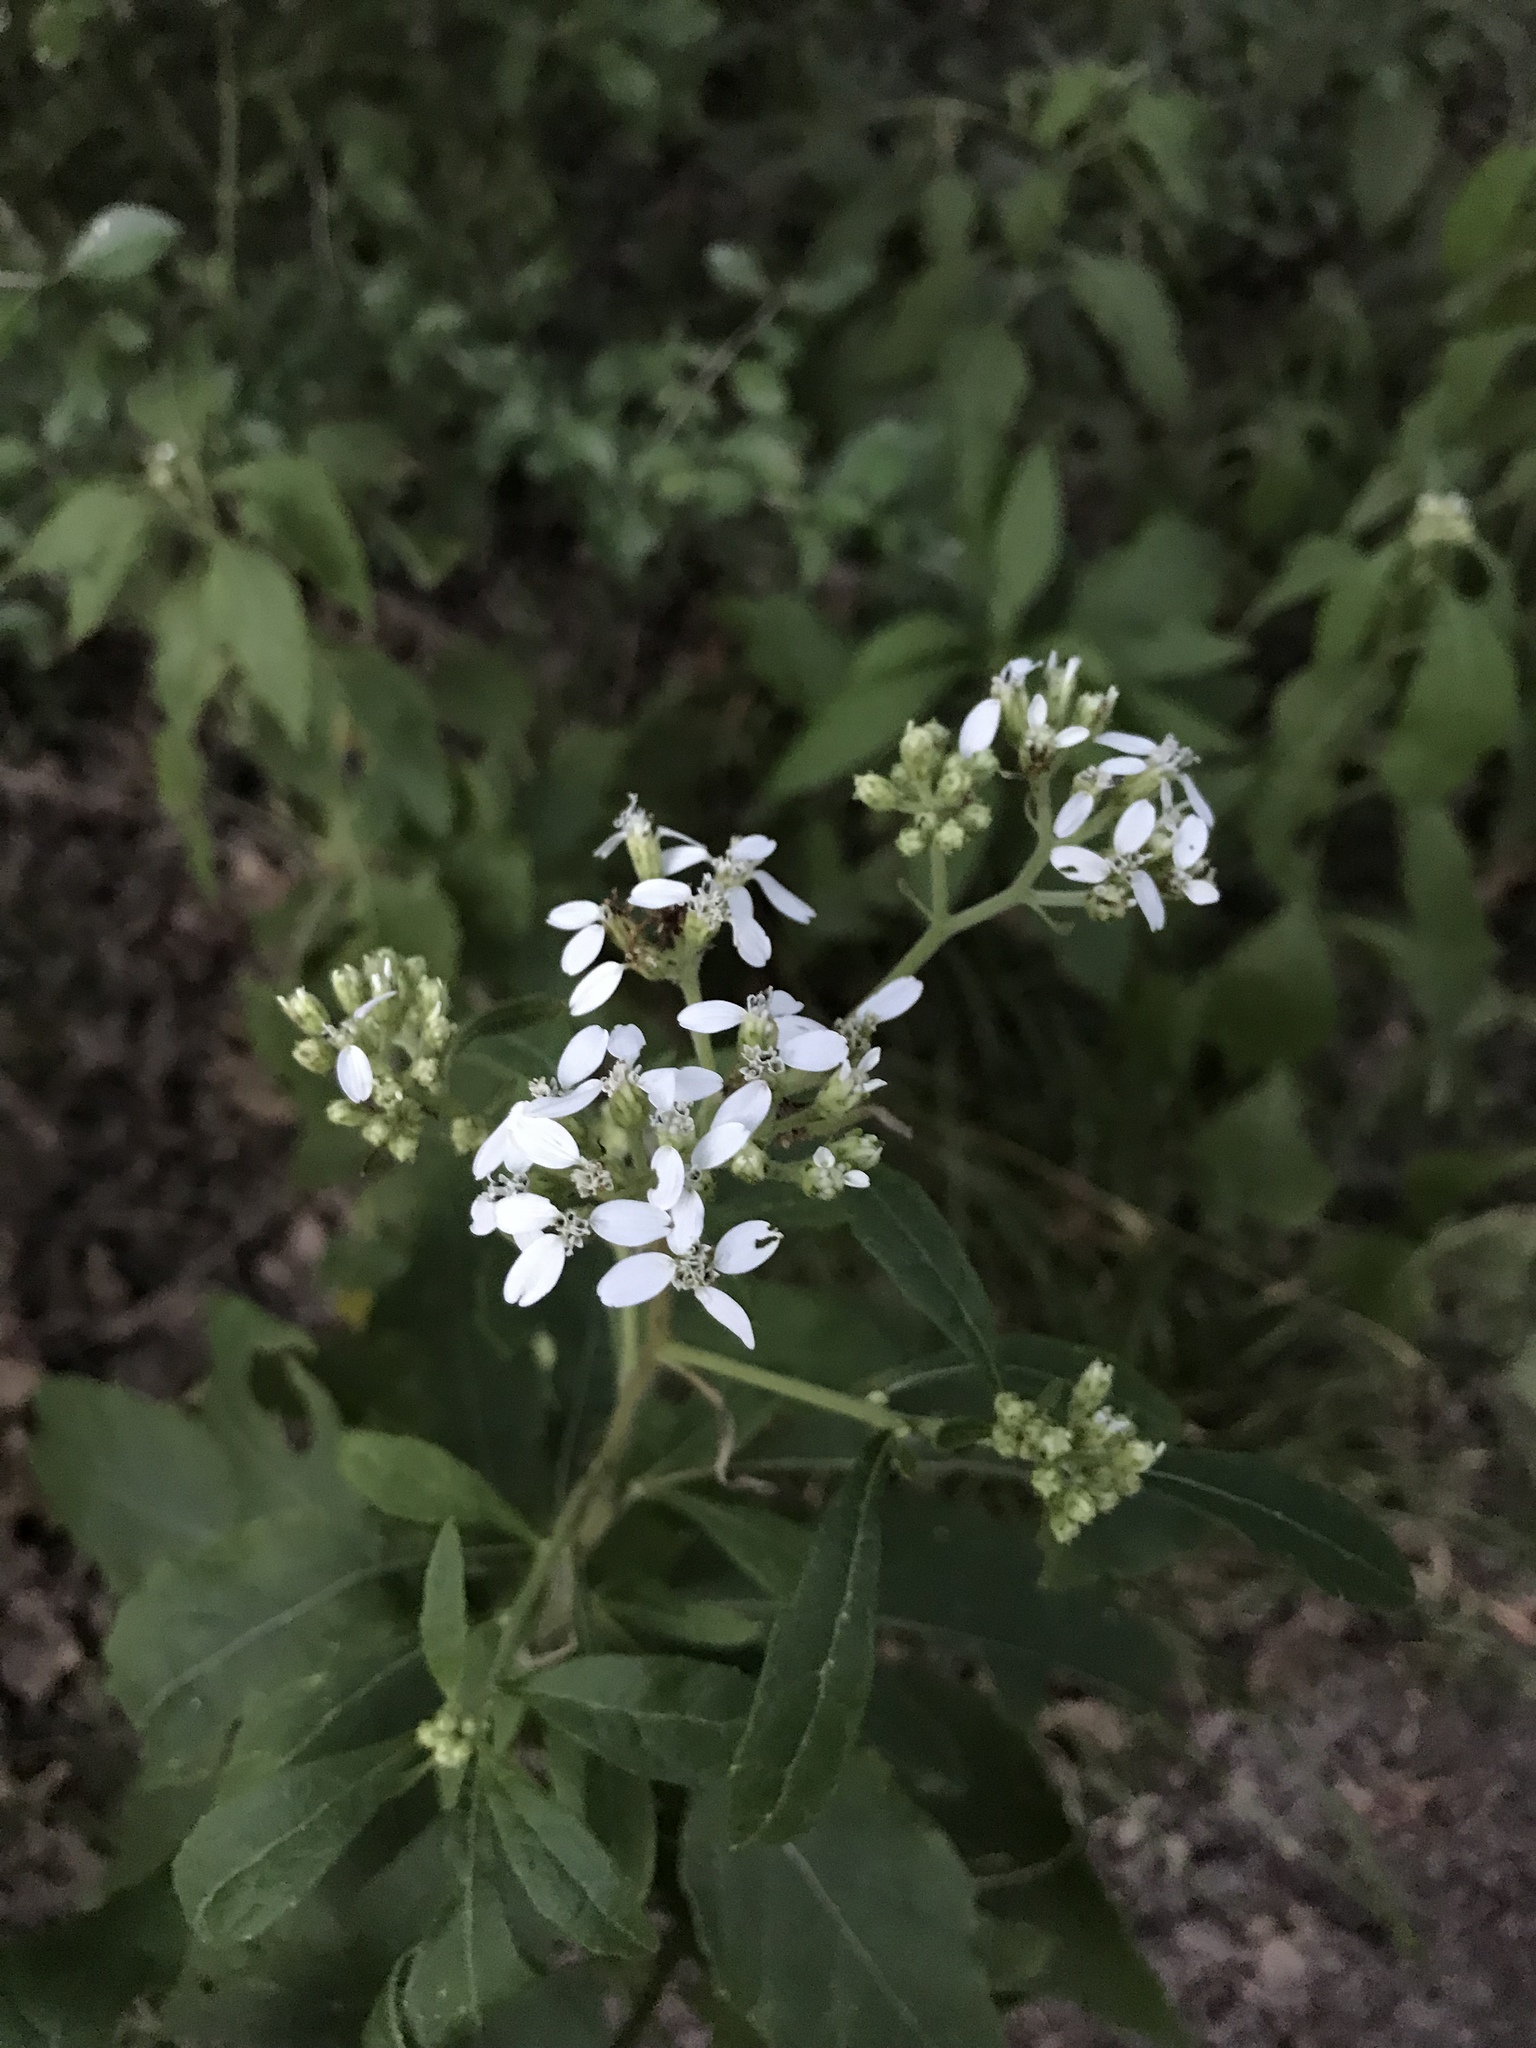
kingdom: Plantae
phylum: Tracheophyta
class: Magnoliopsida
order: Asterales
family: Asteraceae
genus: Verbesina
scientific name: Verbesina virginica
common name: Frostweed
